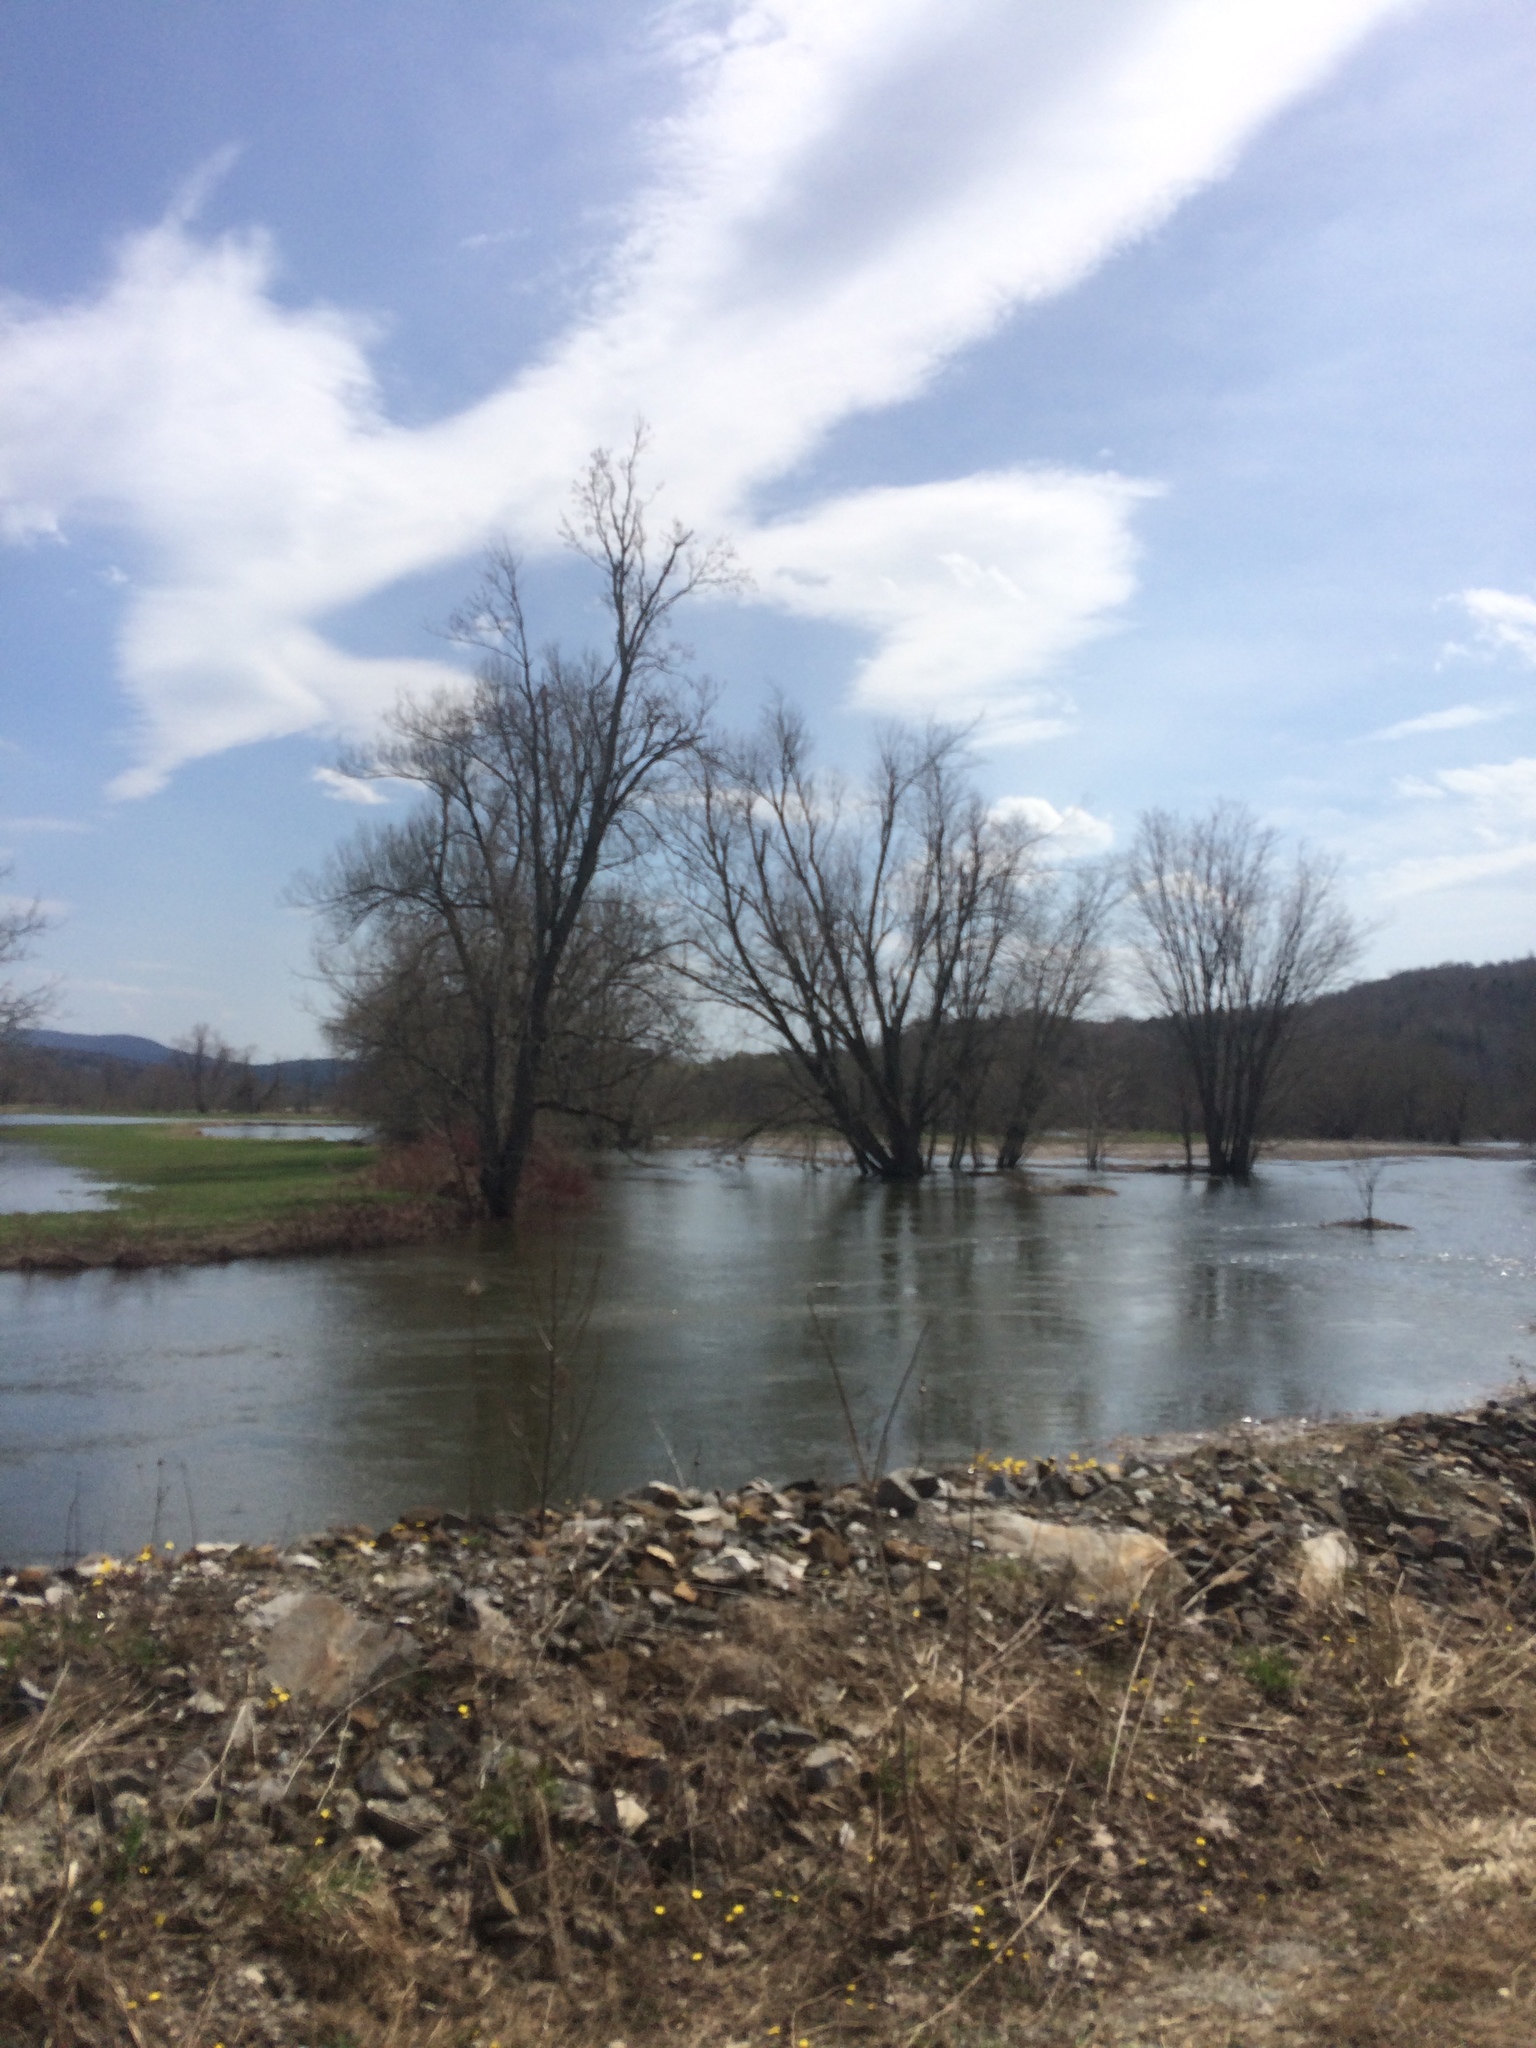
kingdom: Plantae
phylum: Tracheophyta
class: Magnoliopsida
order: Sapindales
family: Sapindaceae
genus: Acer
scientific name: Acer saccharinum
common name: Silver maple
